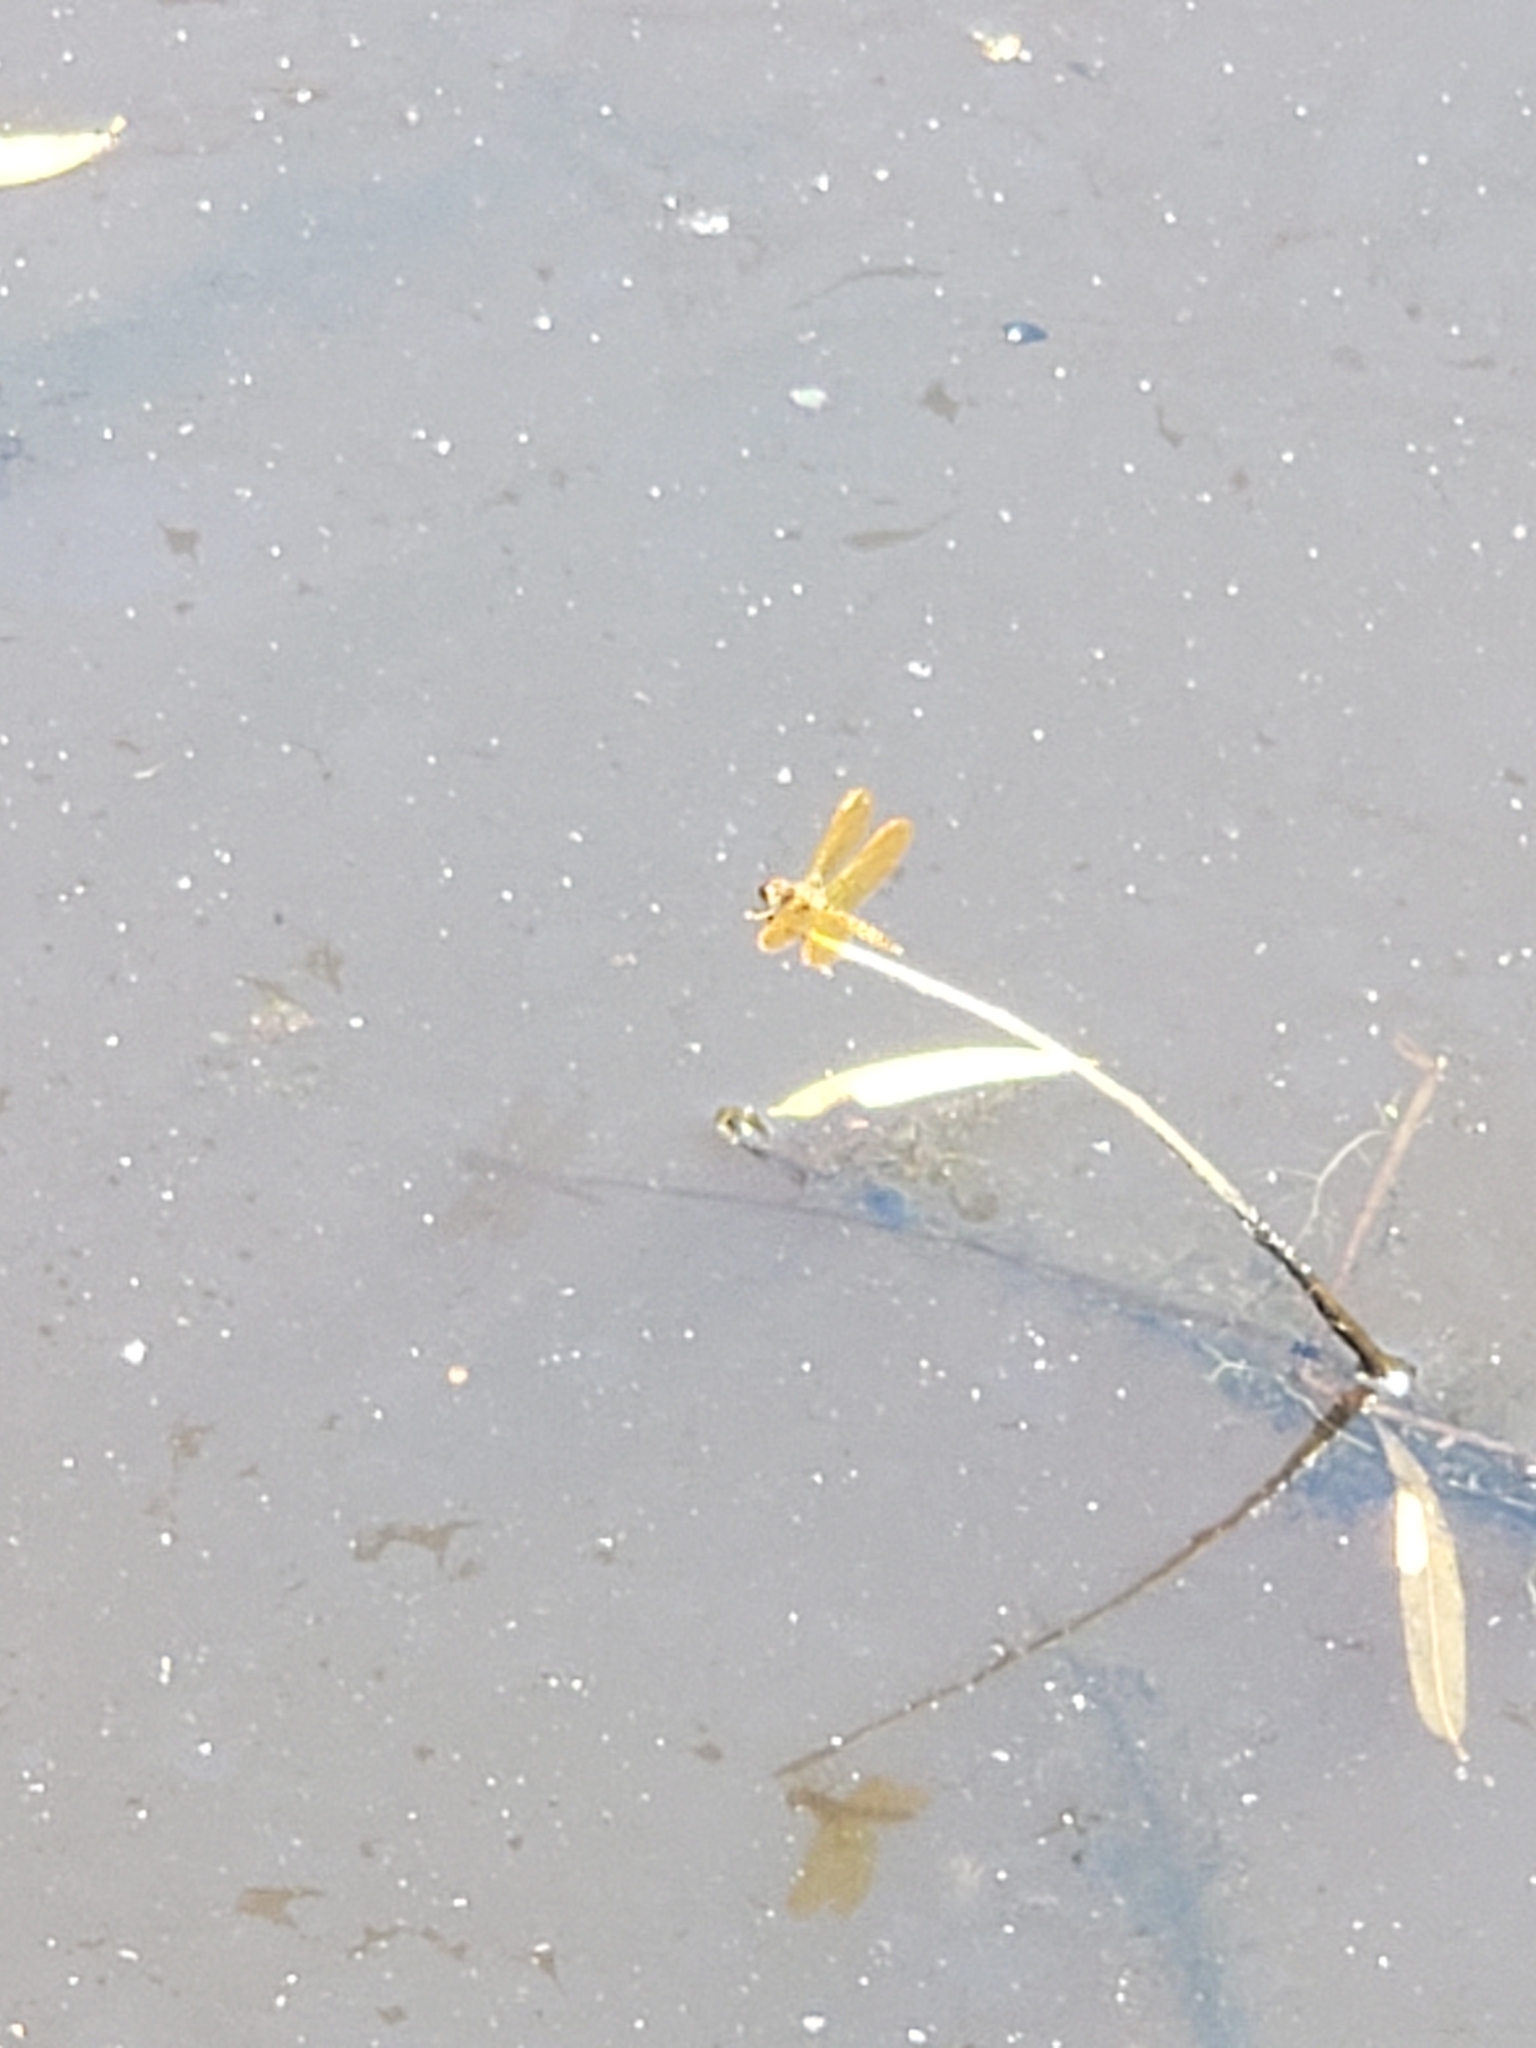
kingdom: Animalia
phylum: Arthropoda
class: Insecta
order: Odonata
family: Libellulidae
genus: Perithemis
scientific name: Perithemis tenera
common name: Eastern amberwing
